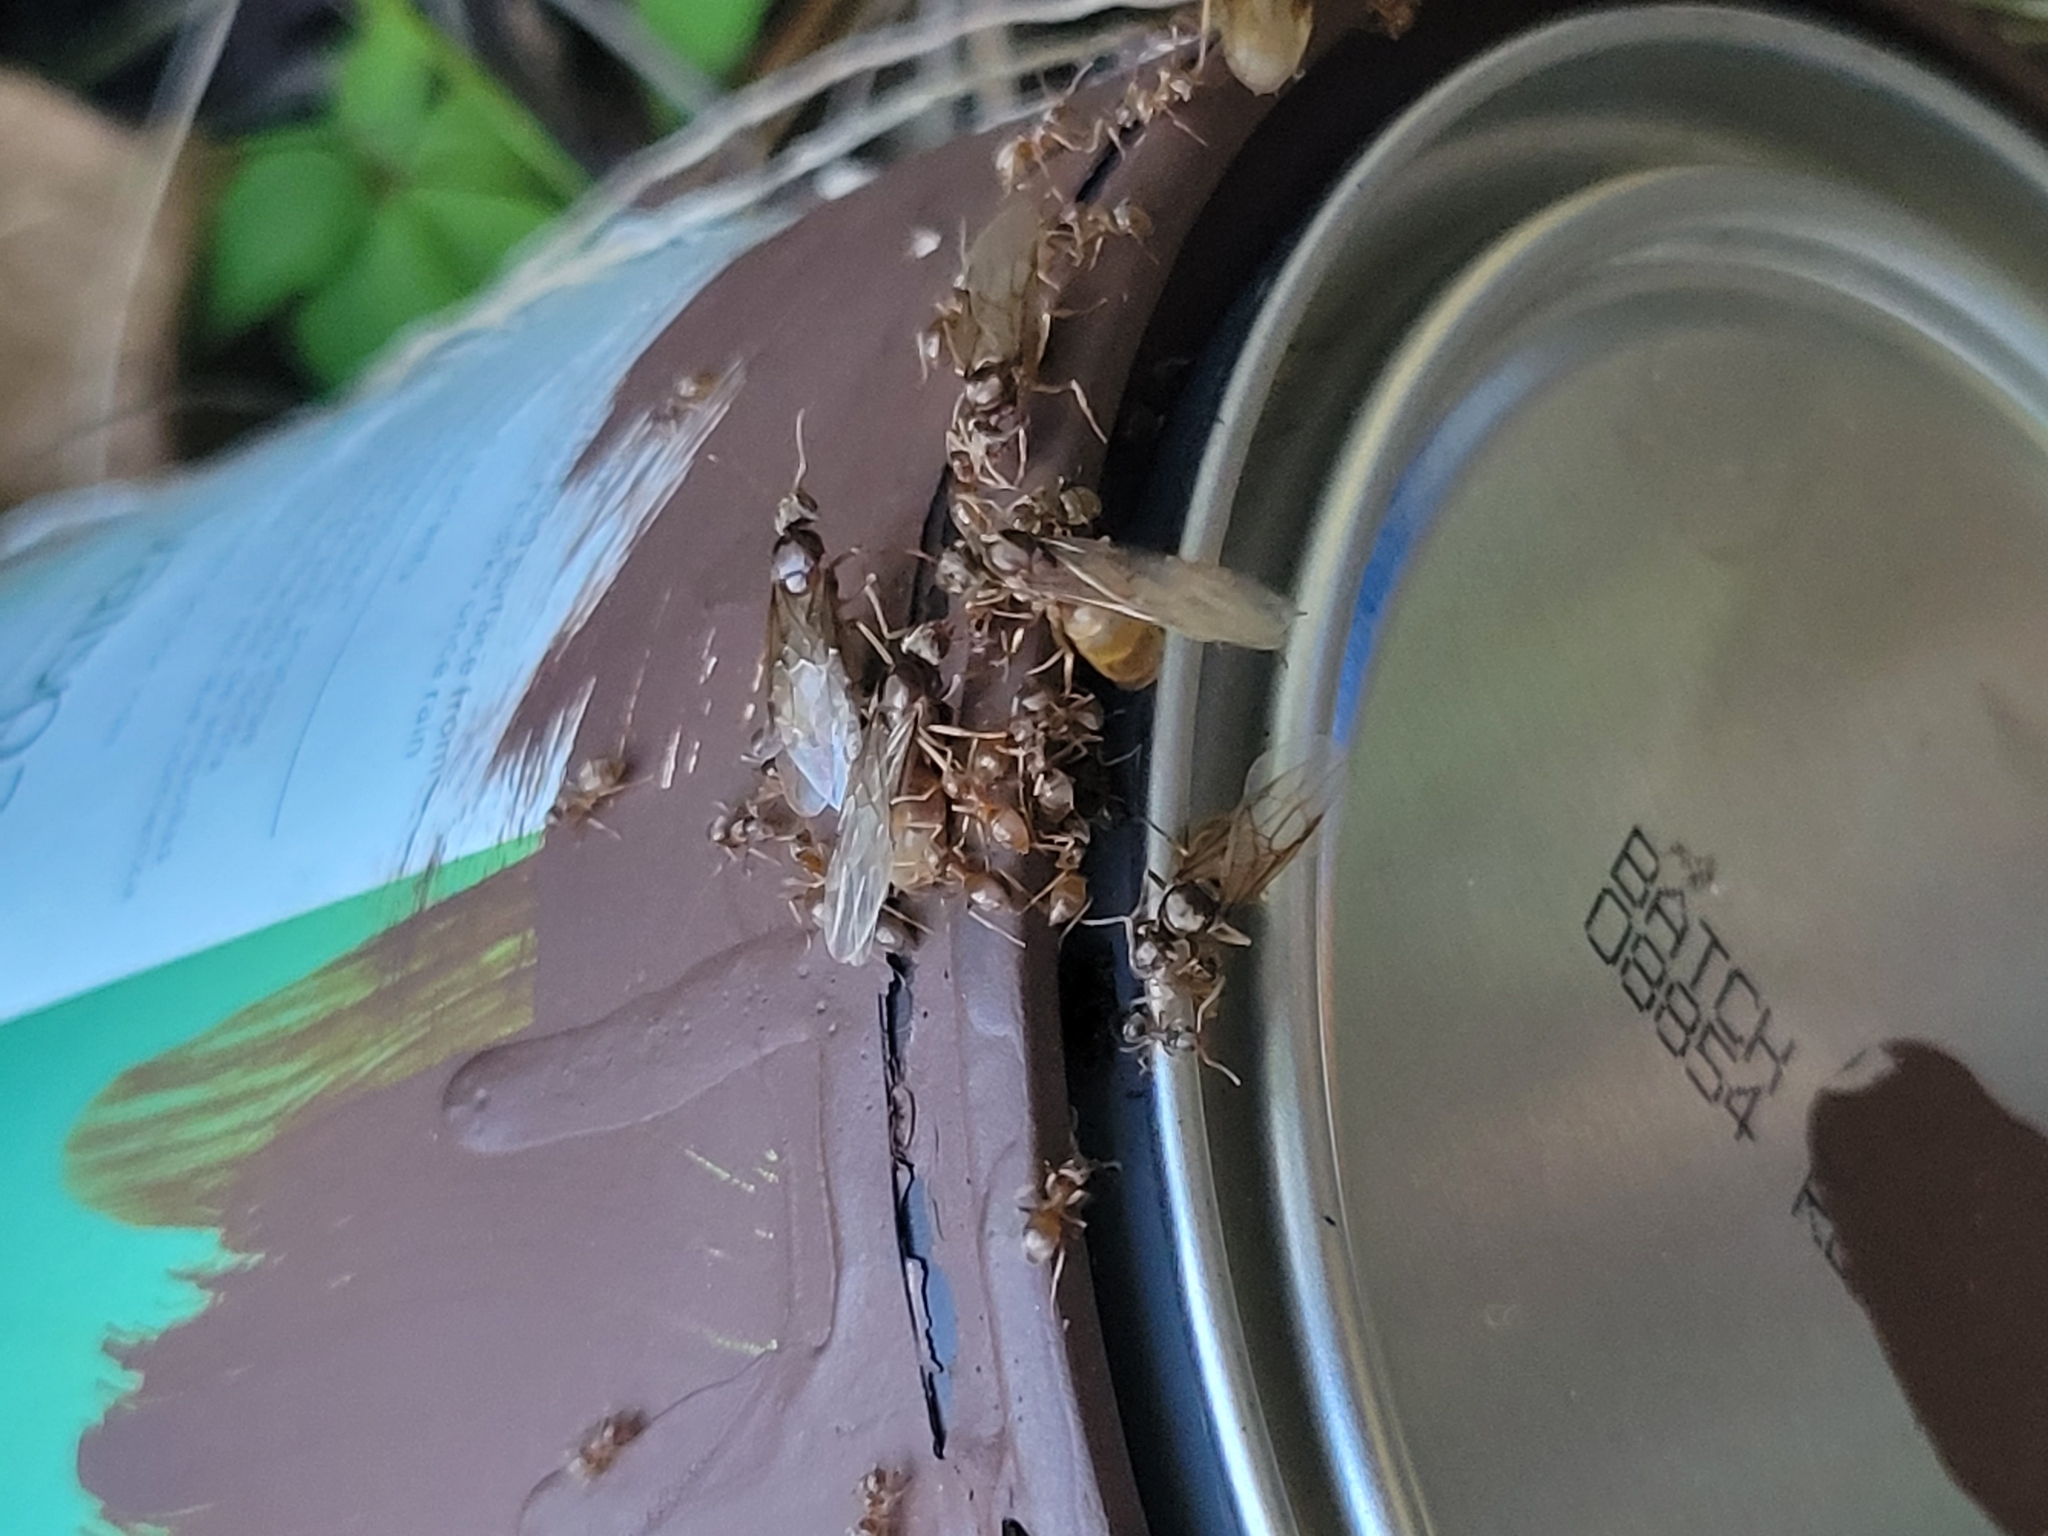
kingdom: Animalia
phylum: Arthropoda
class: Insecta
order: Hymenoptera
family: Formicidae
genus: Lasius
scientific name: Lasius neoniger
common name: Turfgrass ant
